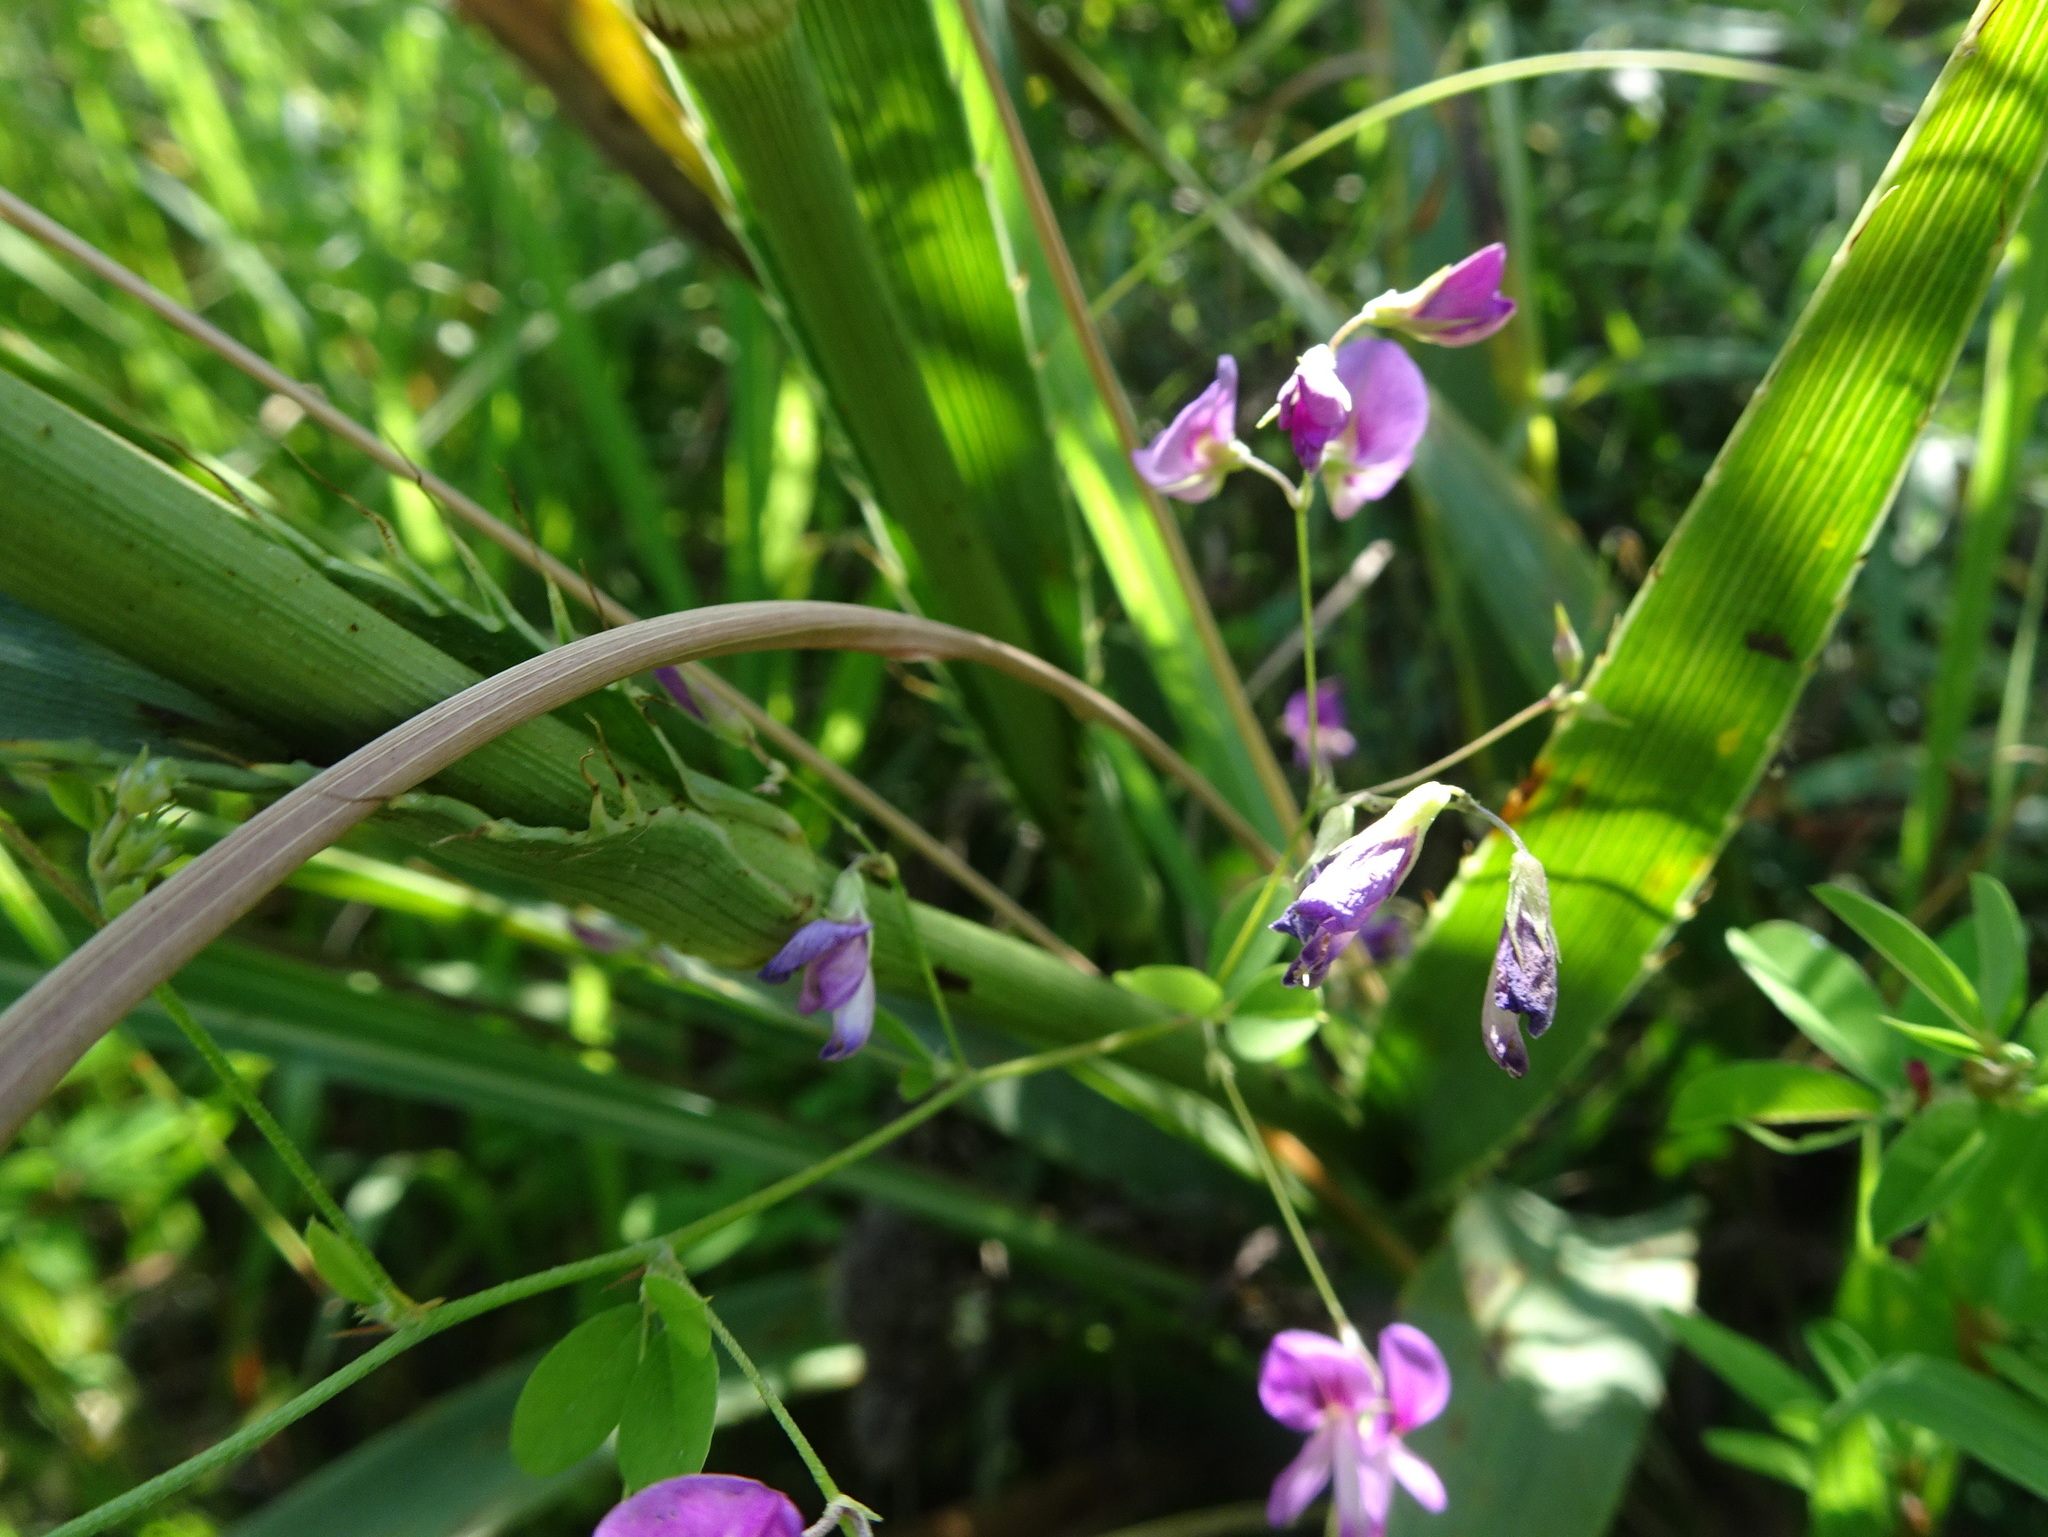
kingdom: Plantae
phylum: Tracheophyta
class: Magnoliopsida
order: Fabales
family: Fabaceae
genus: Lespedeza
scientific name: Lespedeza
